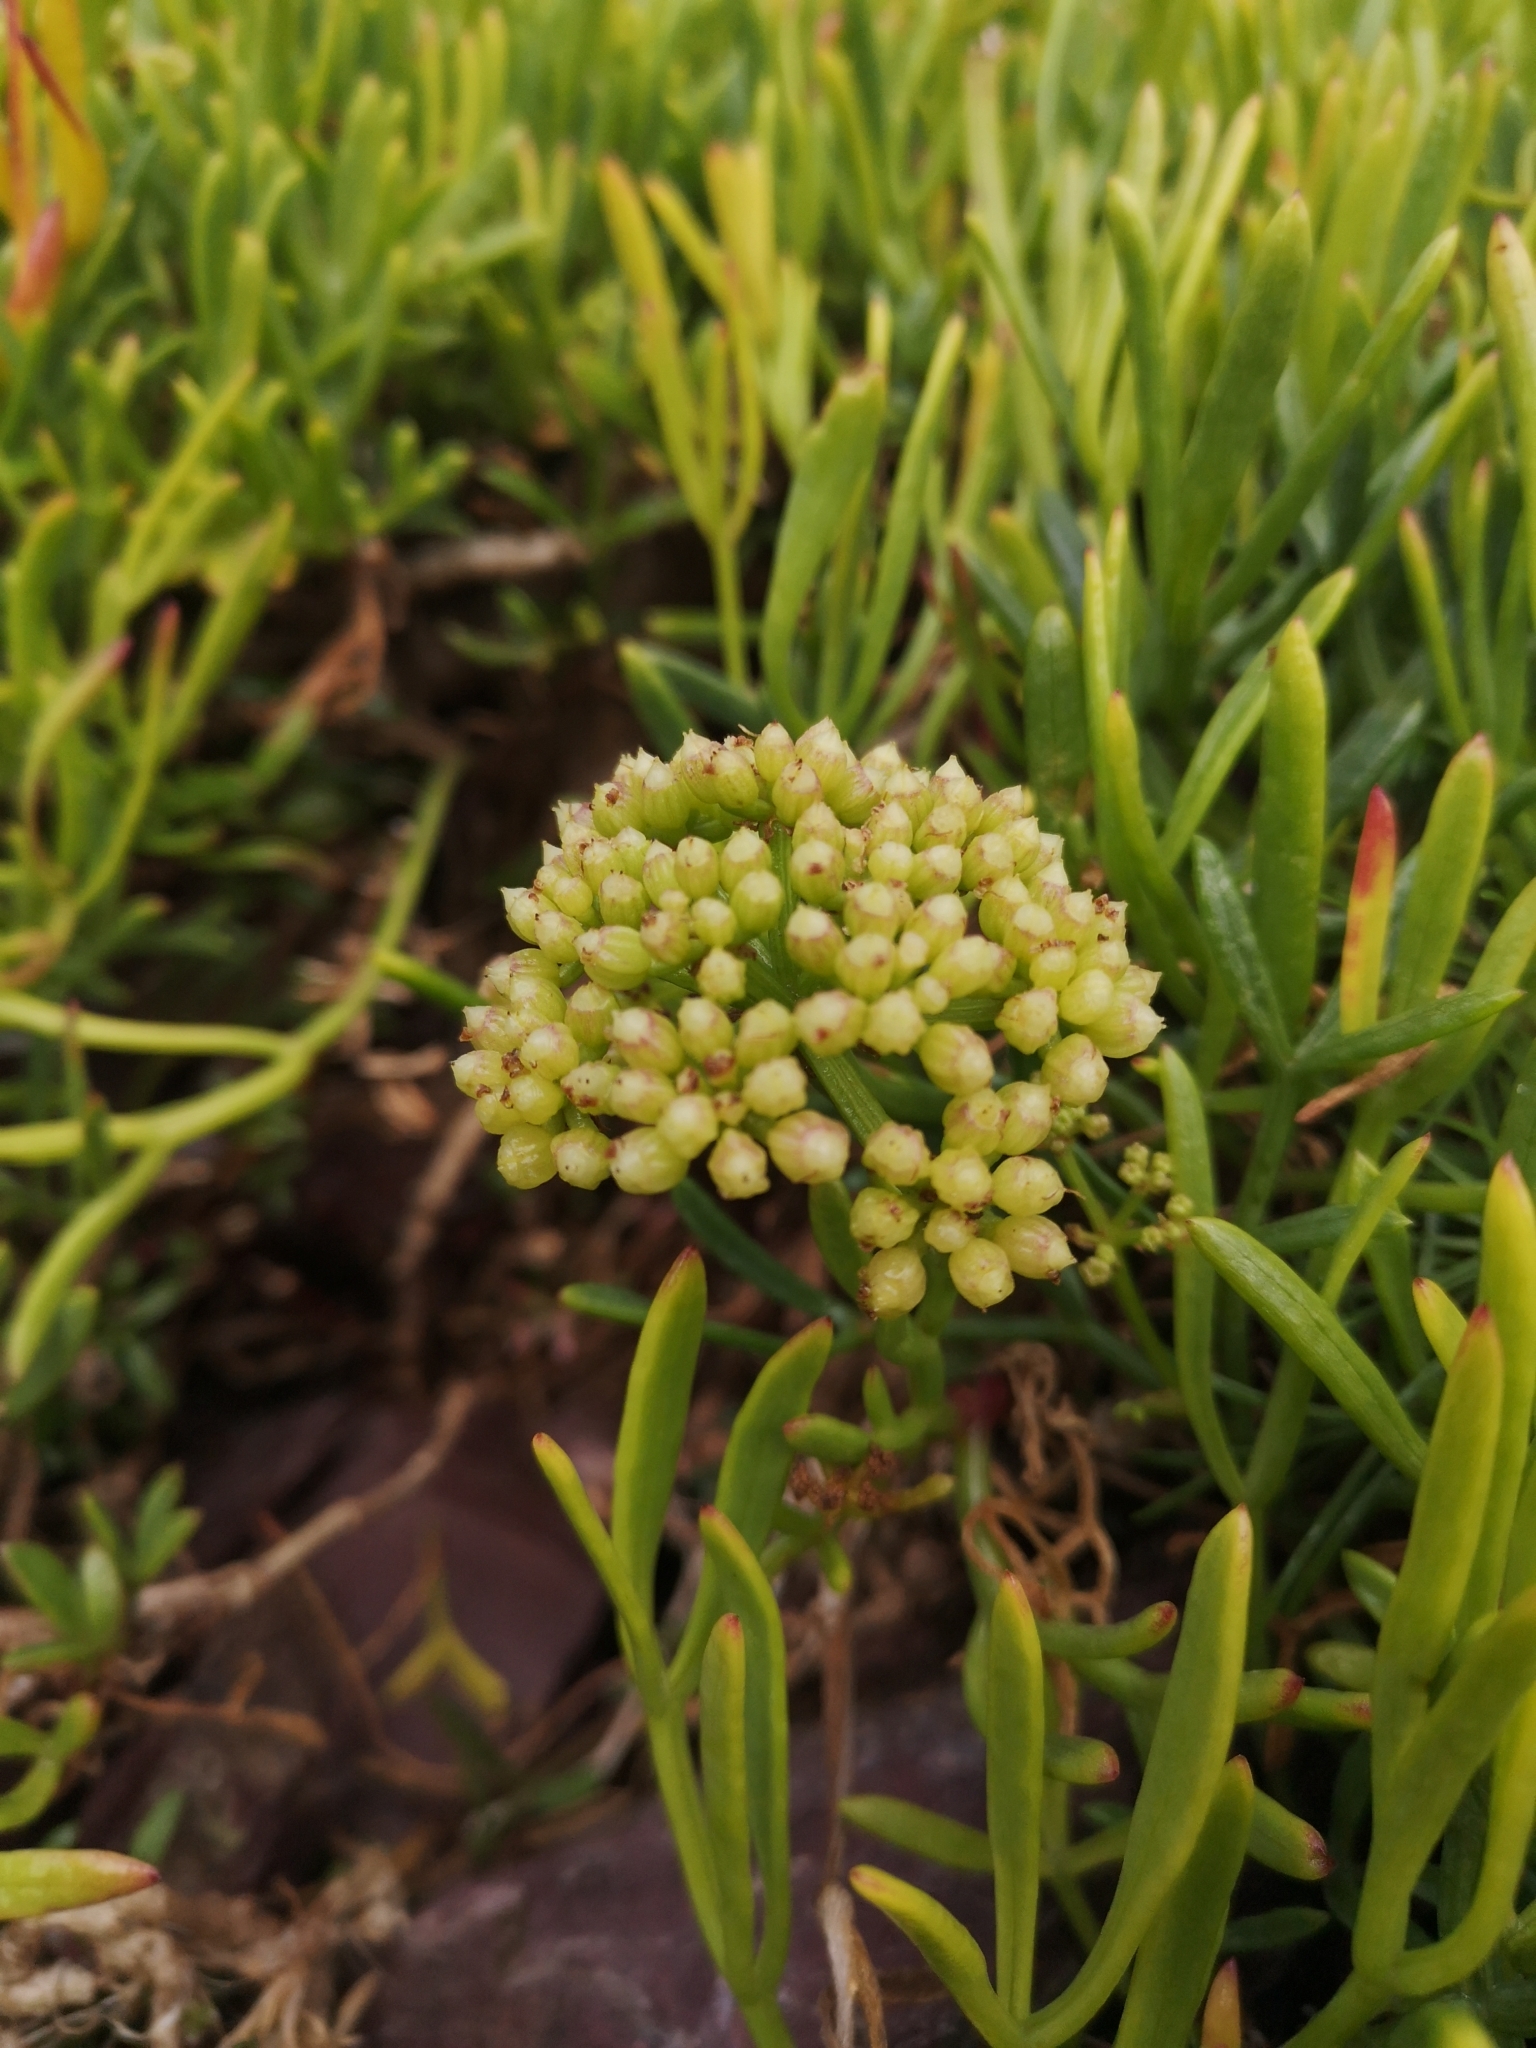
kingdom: Plantae
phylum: Tracheophyta
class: Magnoliopsida
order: Apiales
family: Apiaceae
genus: Crithmum
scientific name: Crithmum maritimum
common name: Rock samphire
